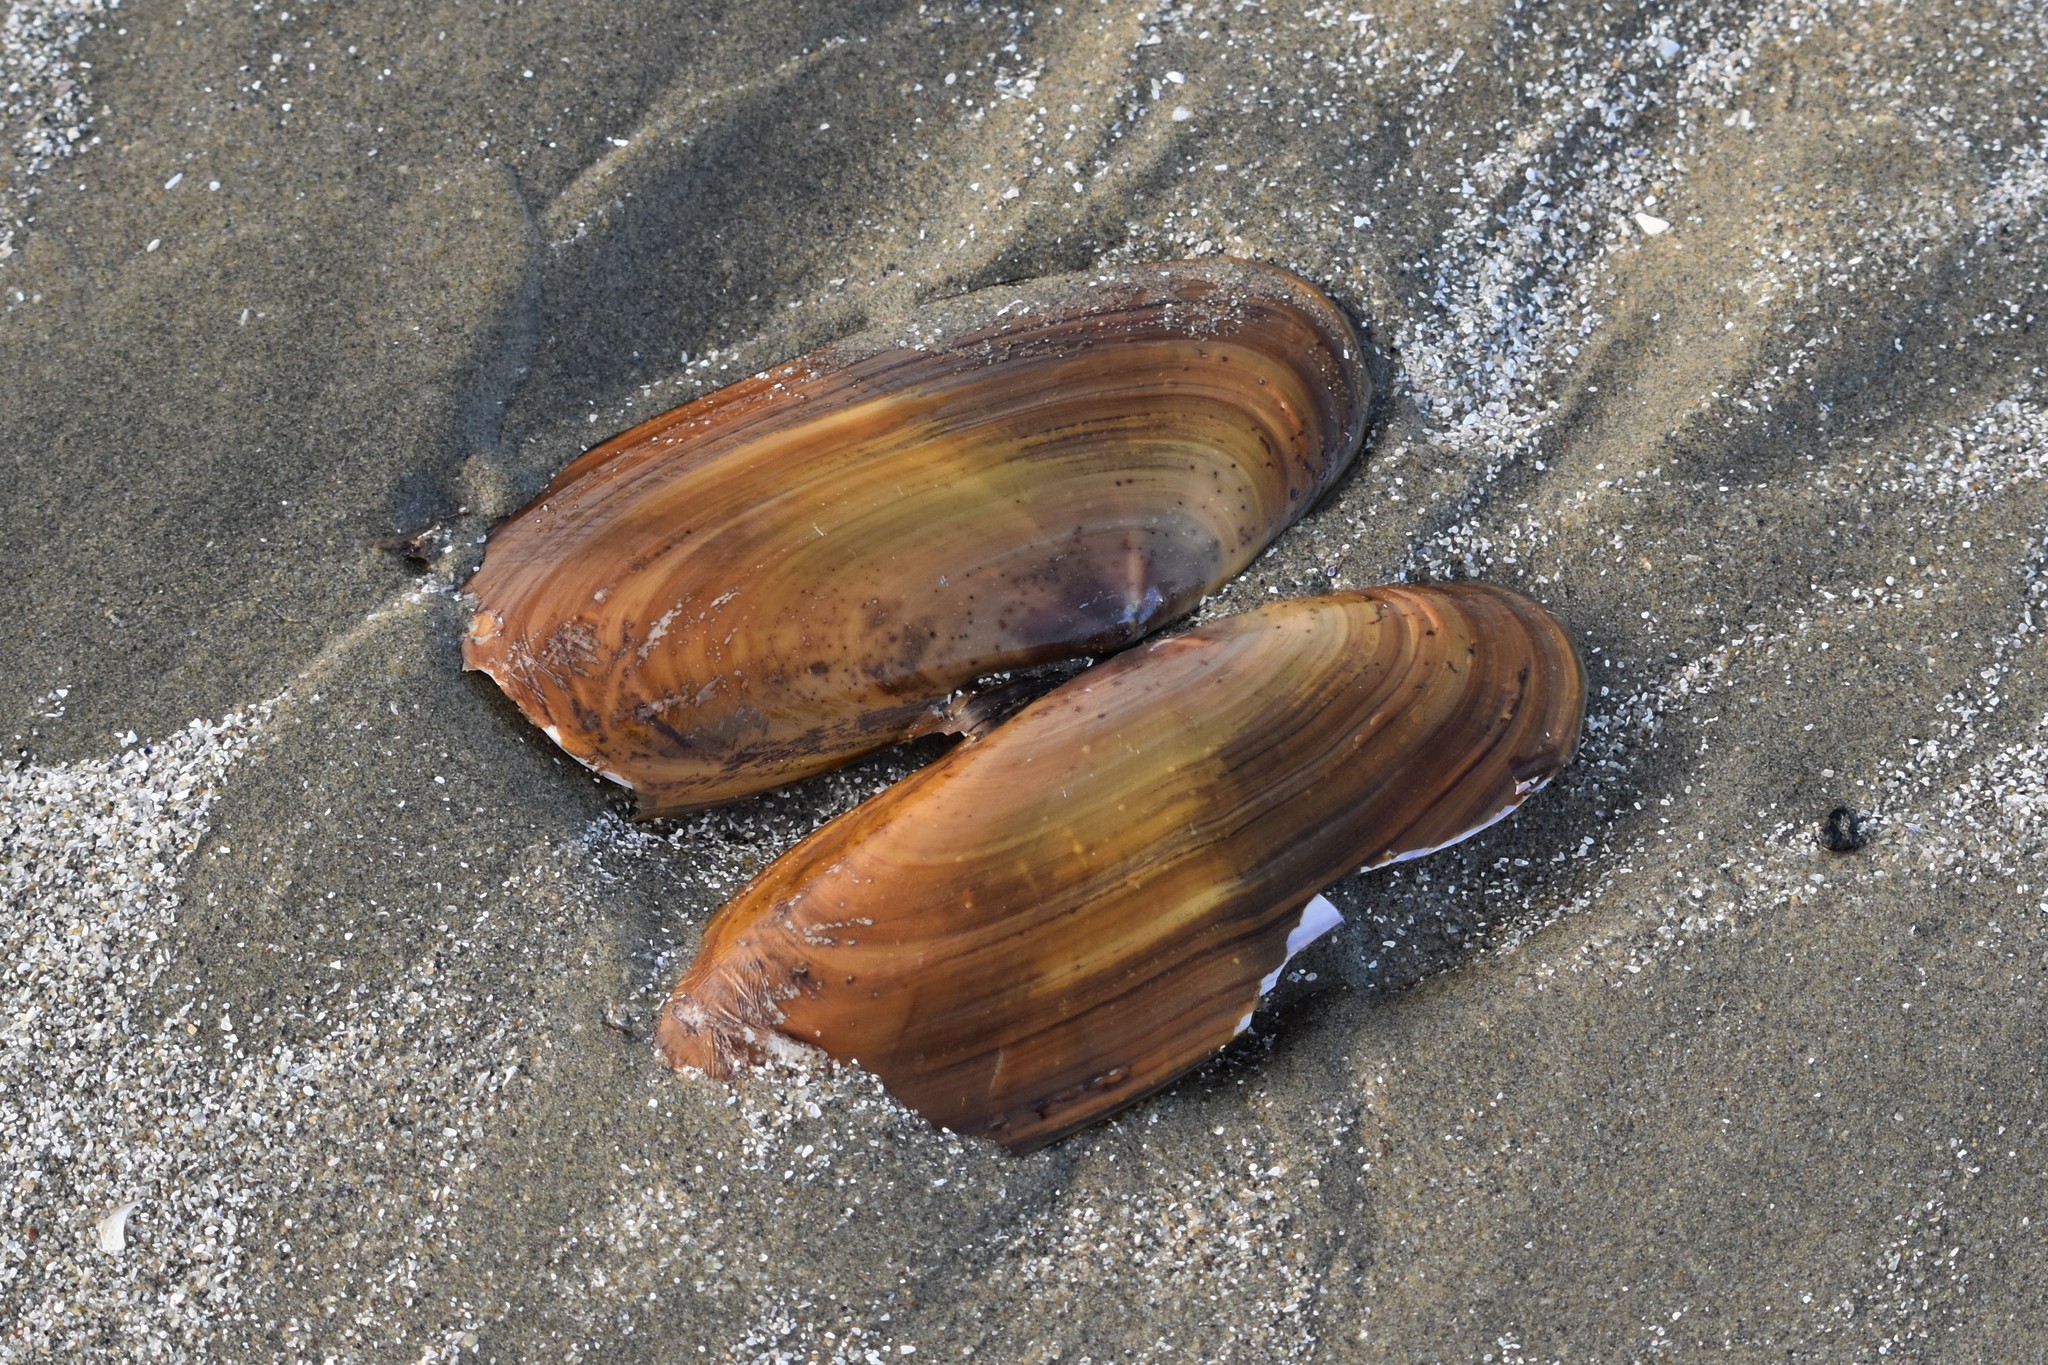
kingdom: Animalia
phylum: Mollusca
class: Bivalvia
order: Adapedonta
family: Pharidae
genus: Siliqua
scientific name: Siliqua patula
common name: Pacific razor clam
